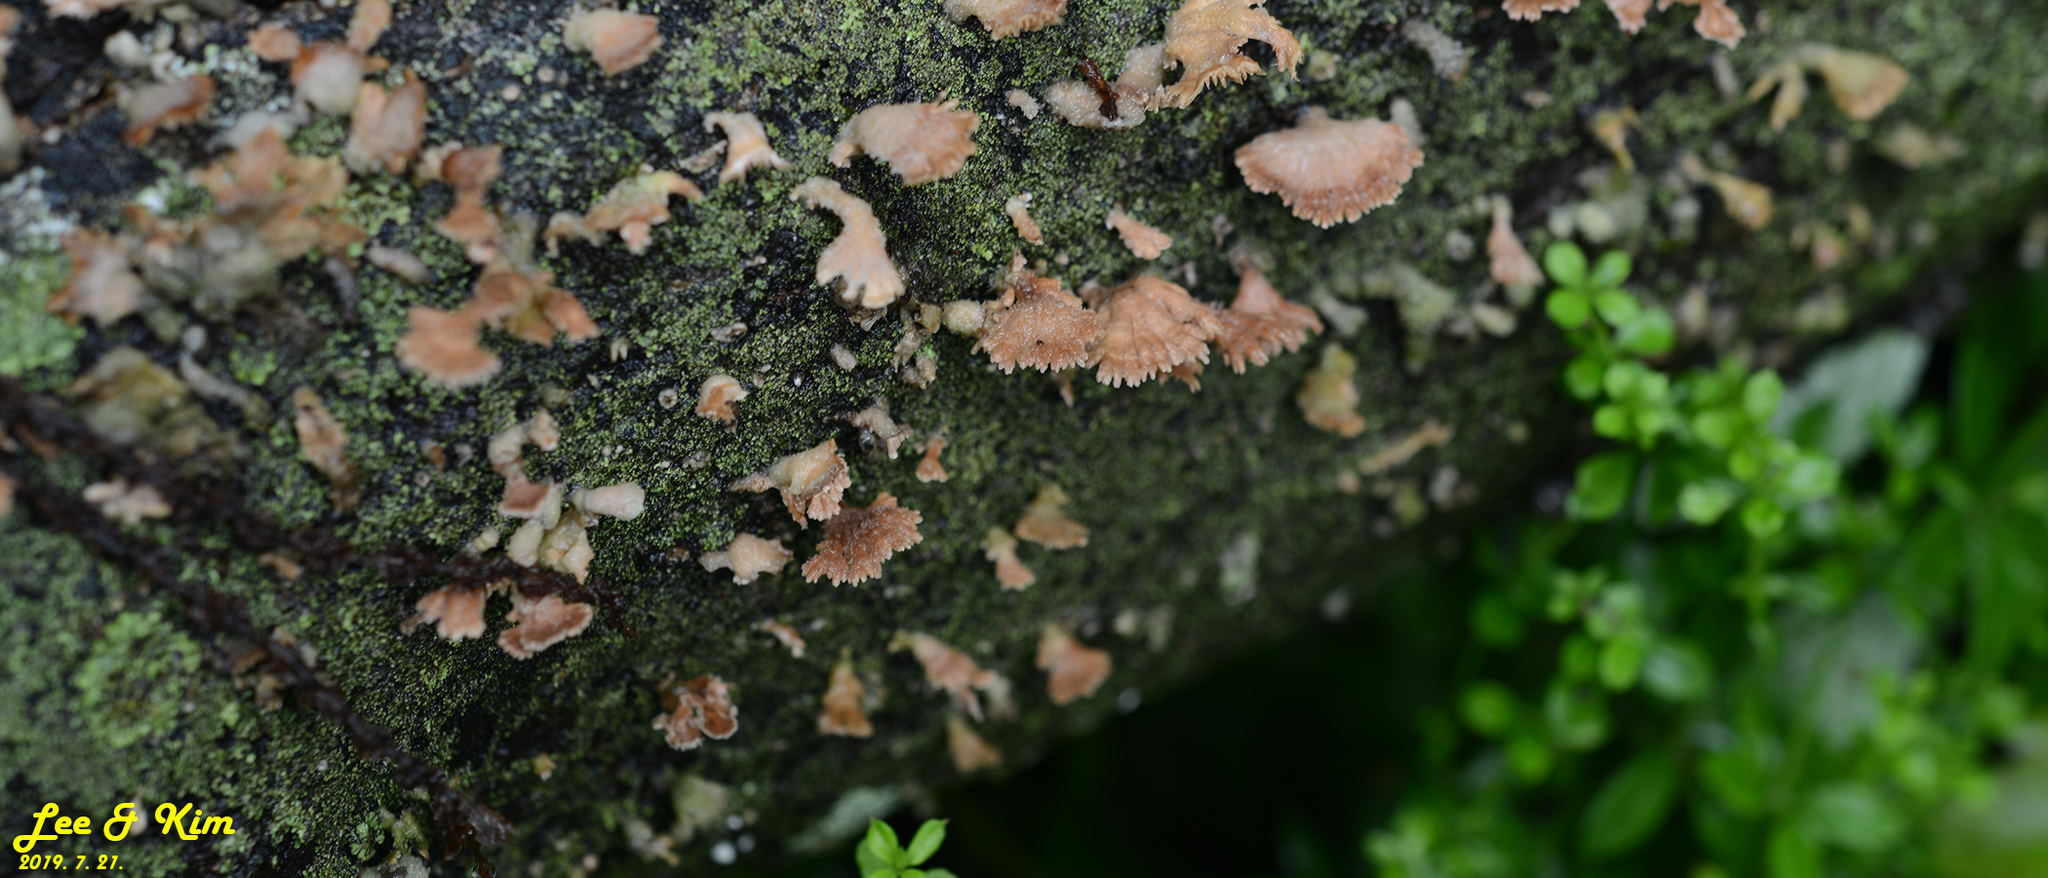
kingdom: Fungi
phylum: Basidiomycota
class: Agaricomycetes
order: Agaricales
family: Schizophyllaceae
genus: Schizophyllum
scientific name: Schizophyllum commune
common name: Common porecrust
